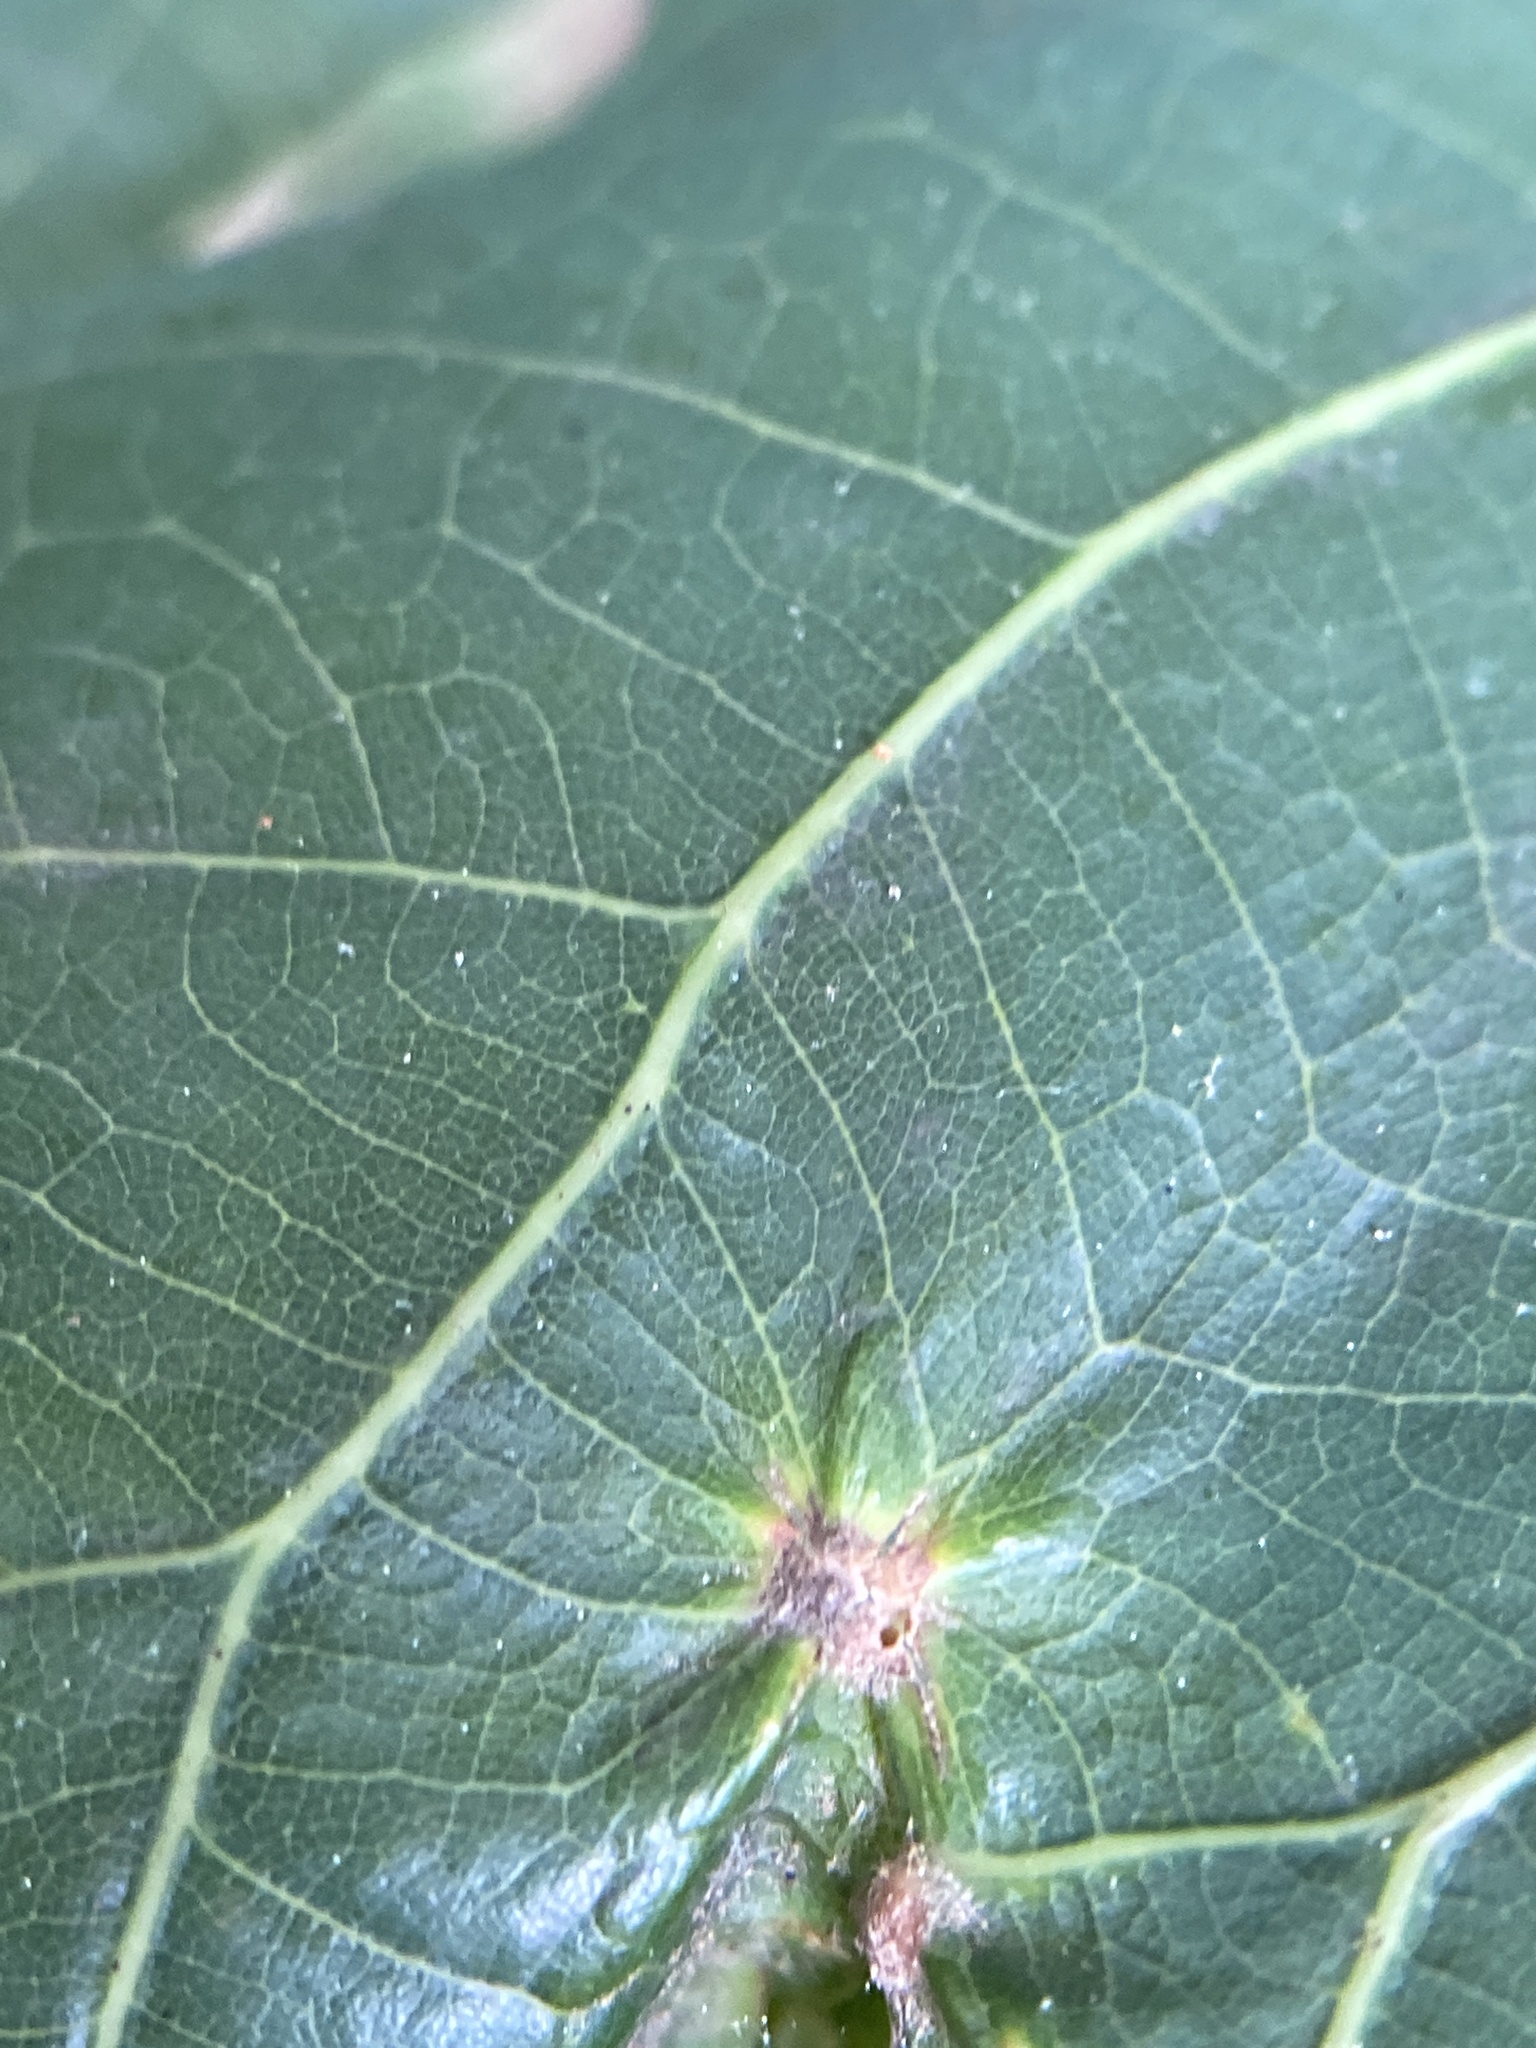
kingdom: Animalia
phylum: Arthropoda
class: Insecta
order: Hymenoptera
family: Cynipidae
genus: Andricus
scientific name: Andricus
